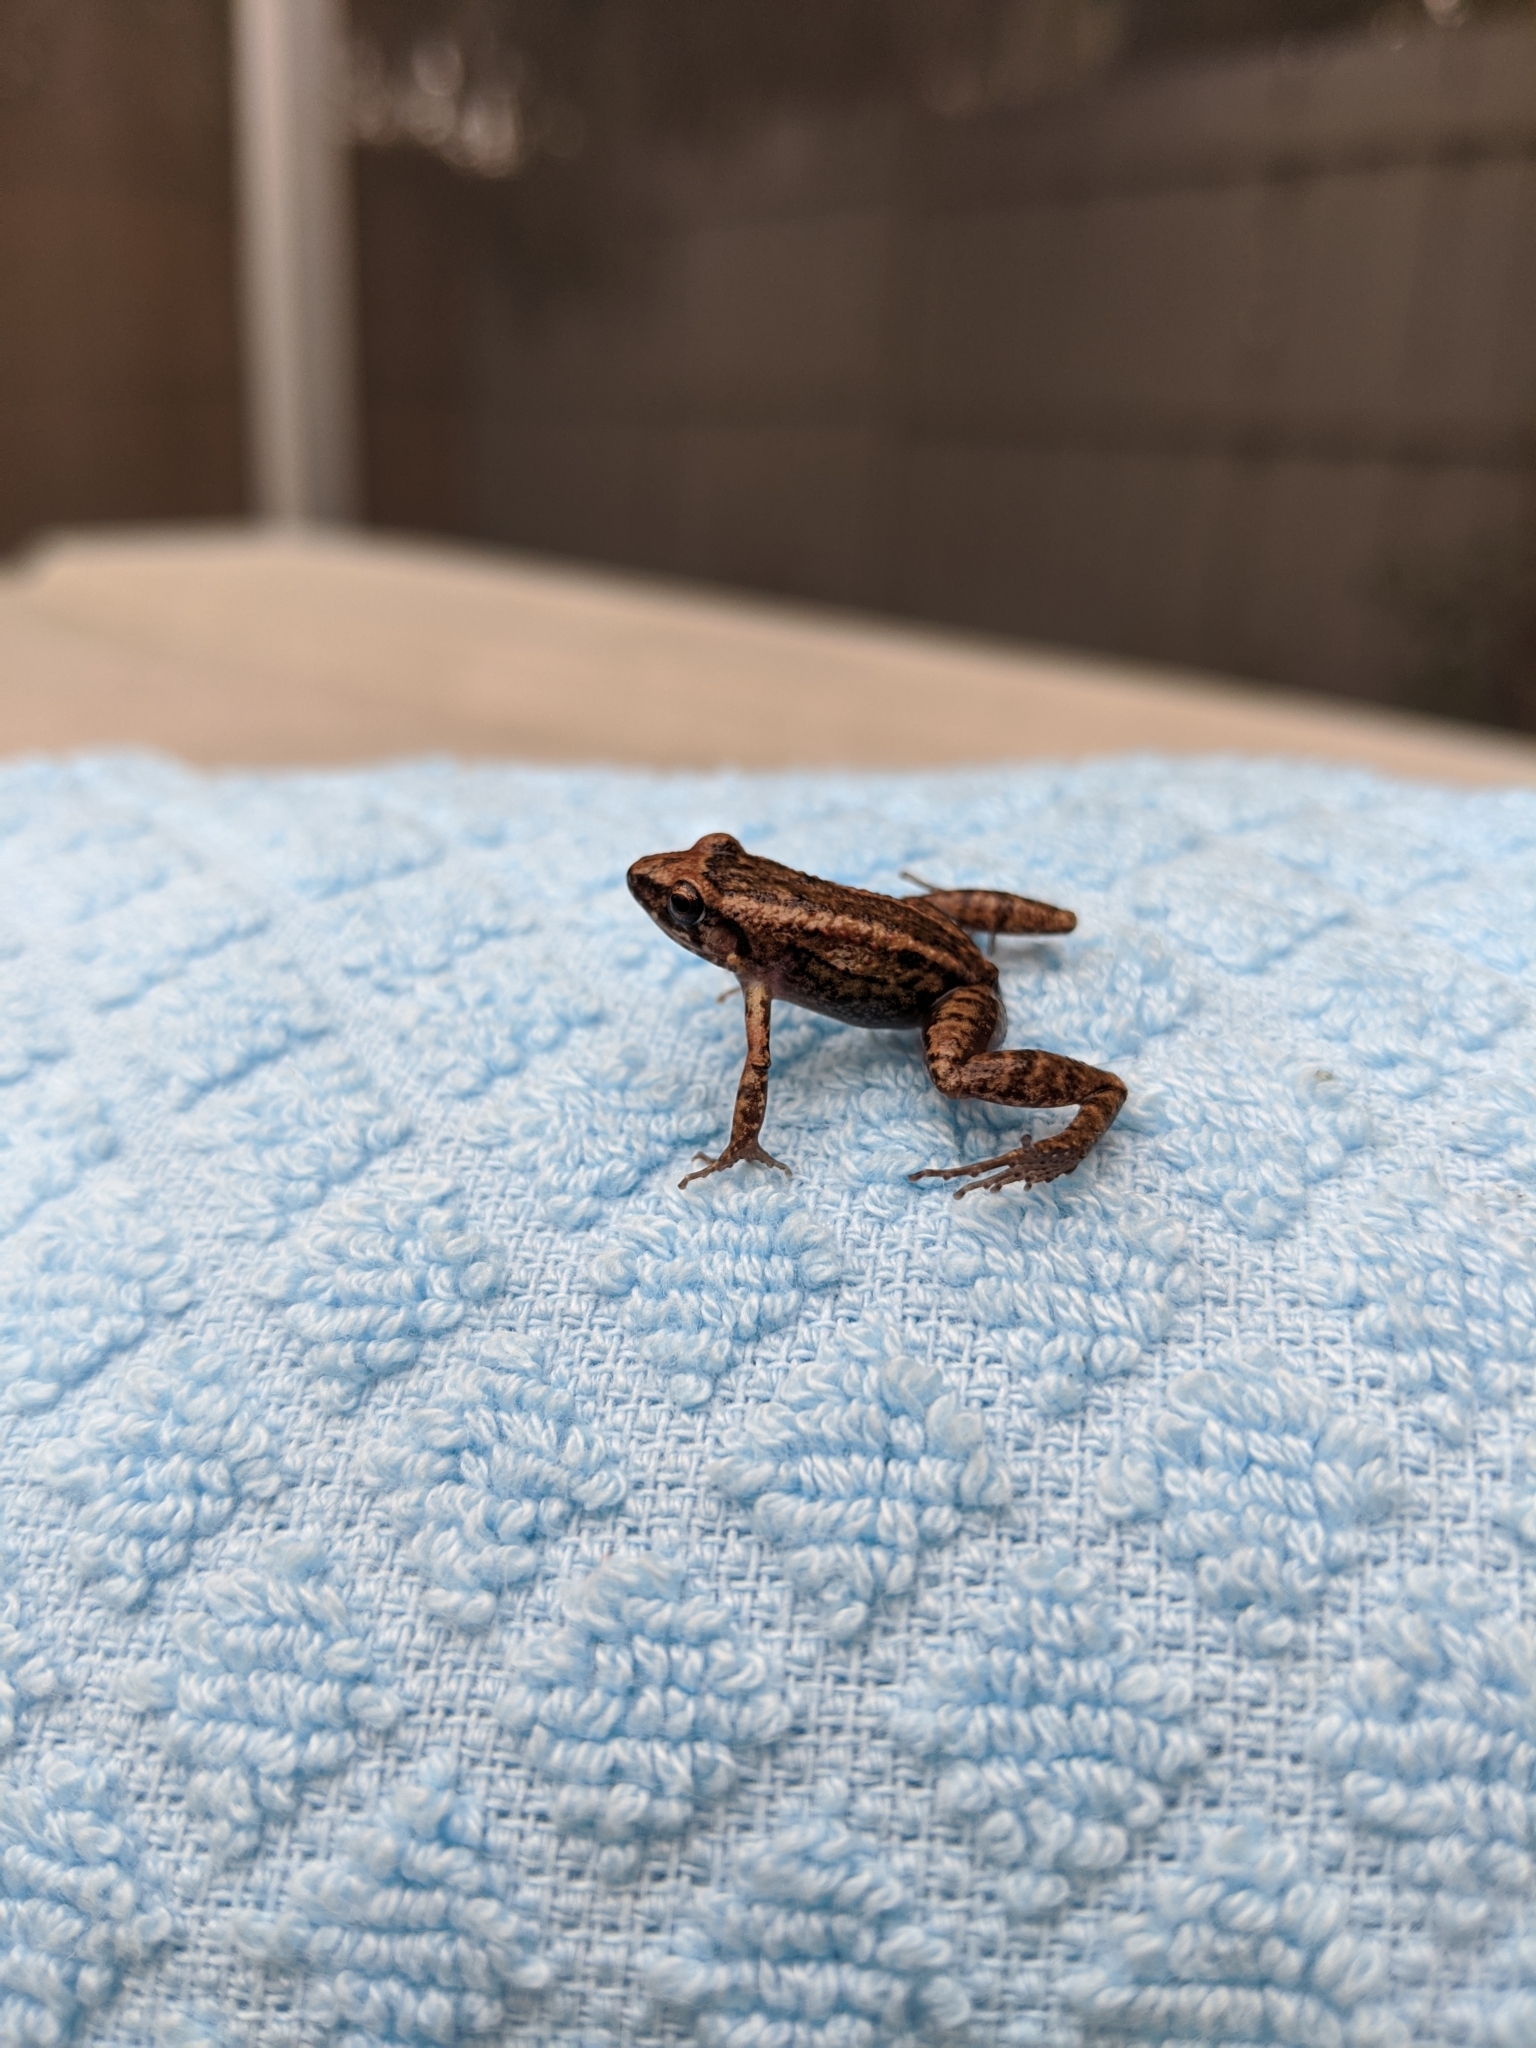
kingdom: Animalia
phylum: Chordata
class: Amphibia
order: Anura
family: Eleutherodactylidae
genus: Eleutherodactylus
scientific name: Eleutherodactylus planirostris
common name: Greenhouse frog
